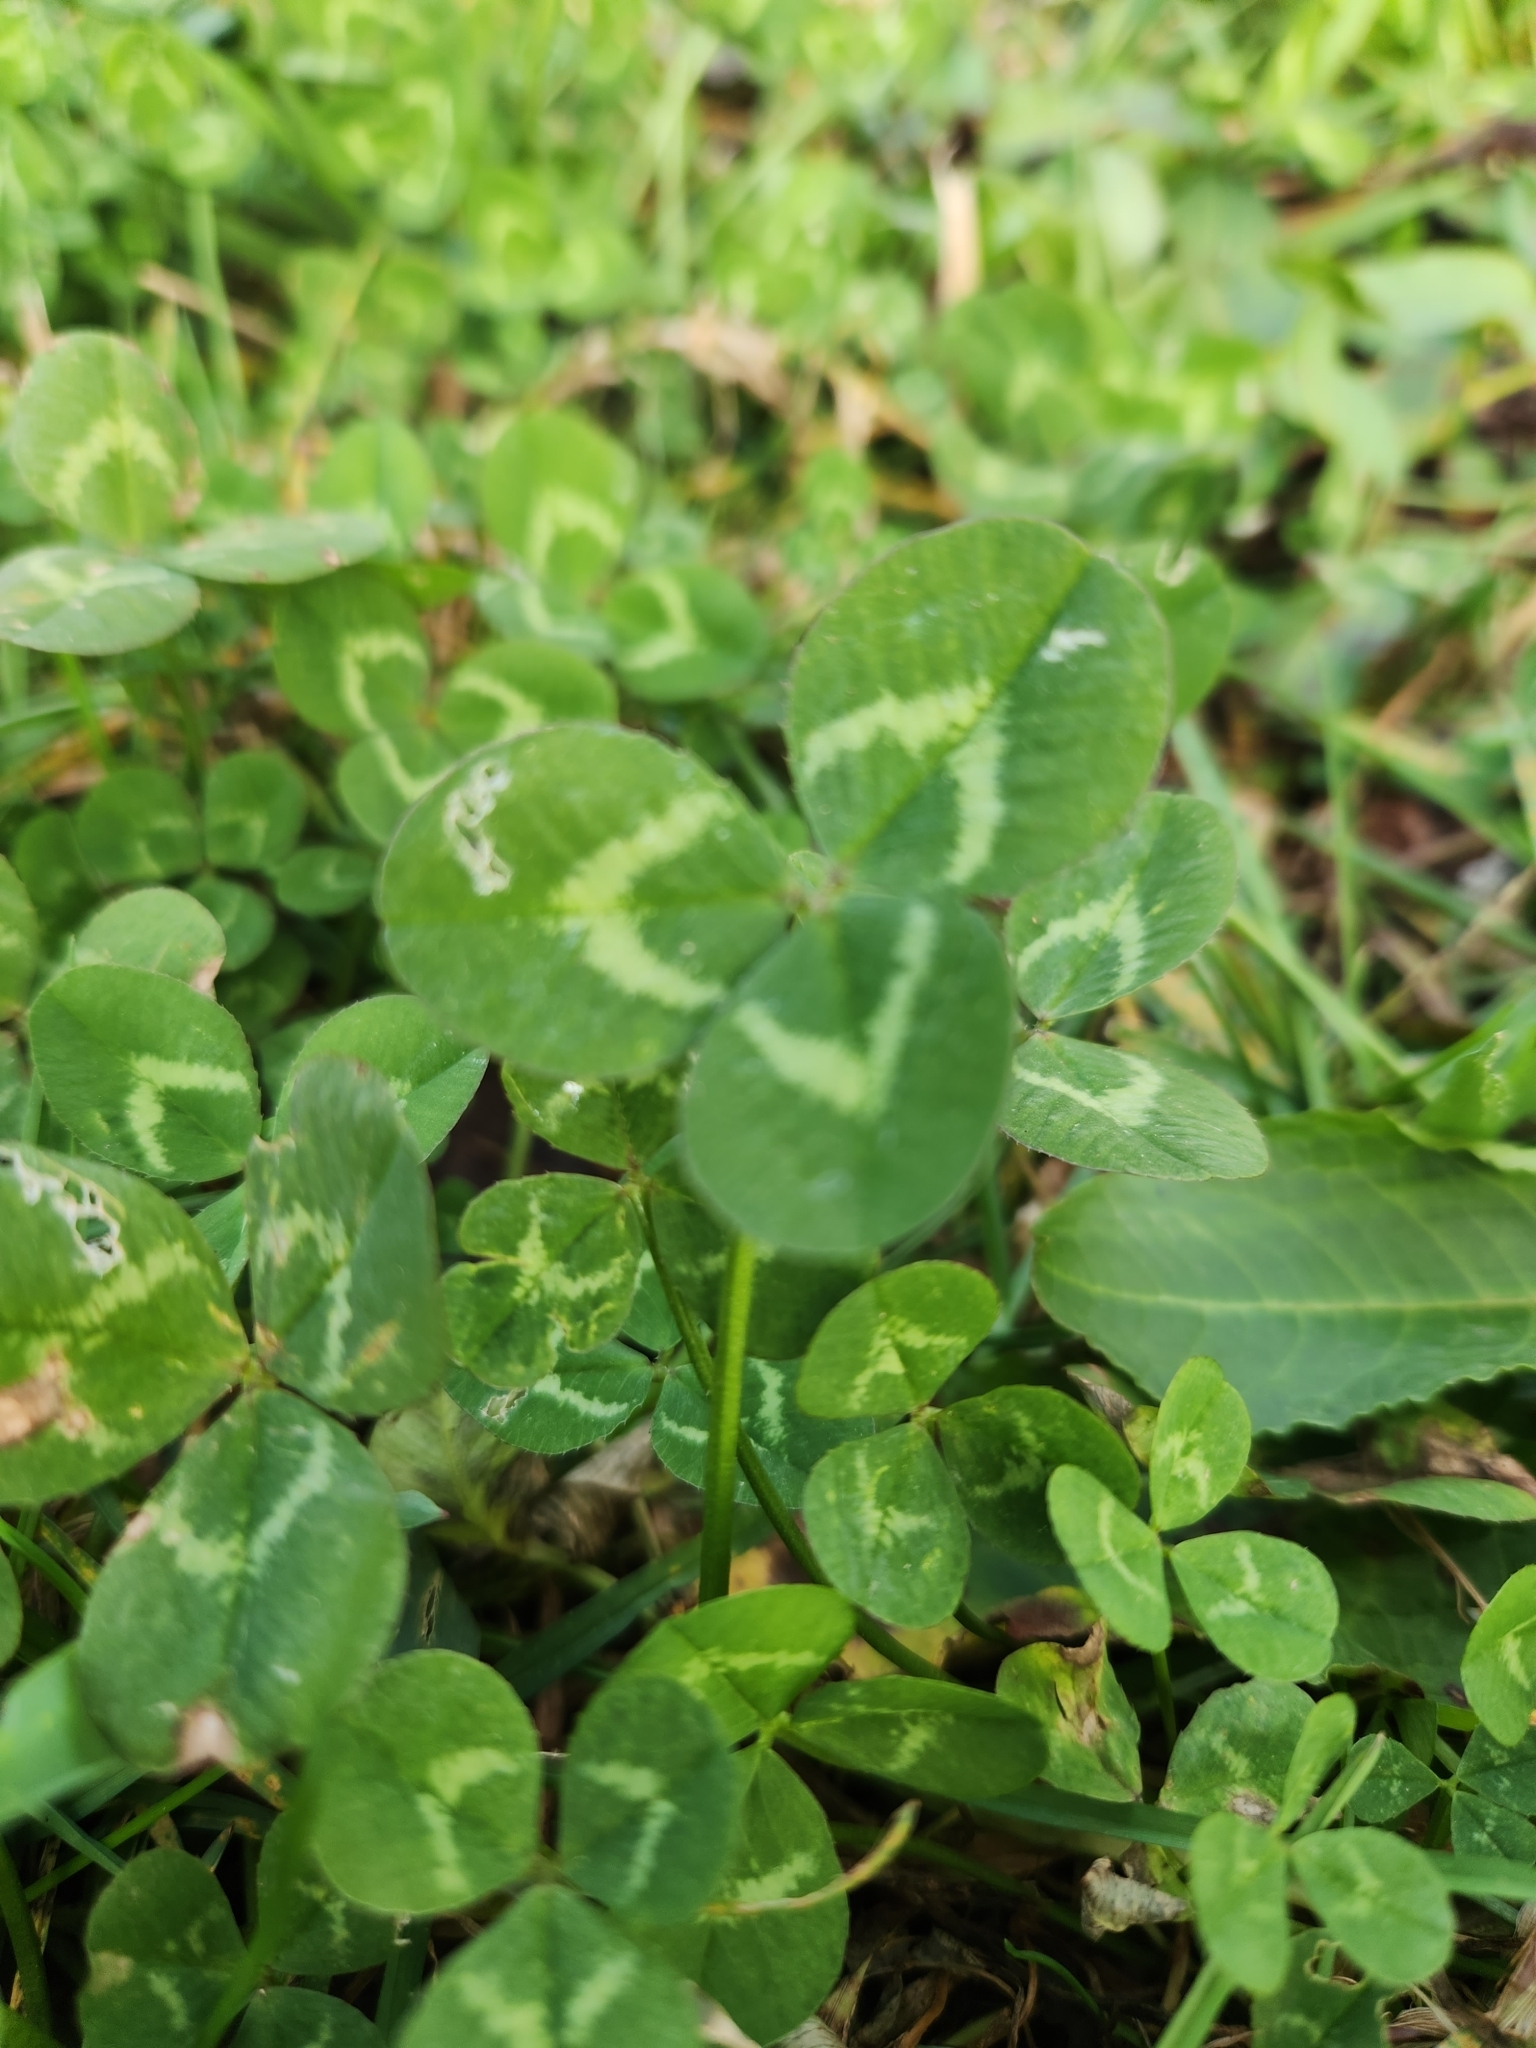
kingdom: Plantae
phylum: Tracheophyta
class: Magnoliopsida
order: Fabales
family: Fabaceae
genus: Trifolium
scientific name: Trifolium repens
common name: White clover
